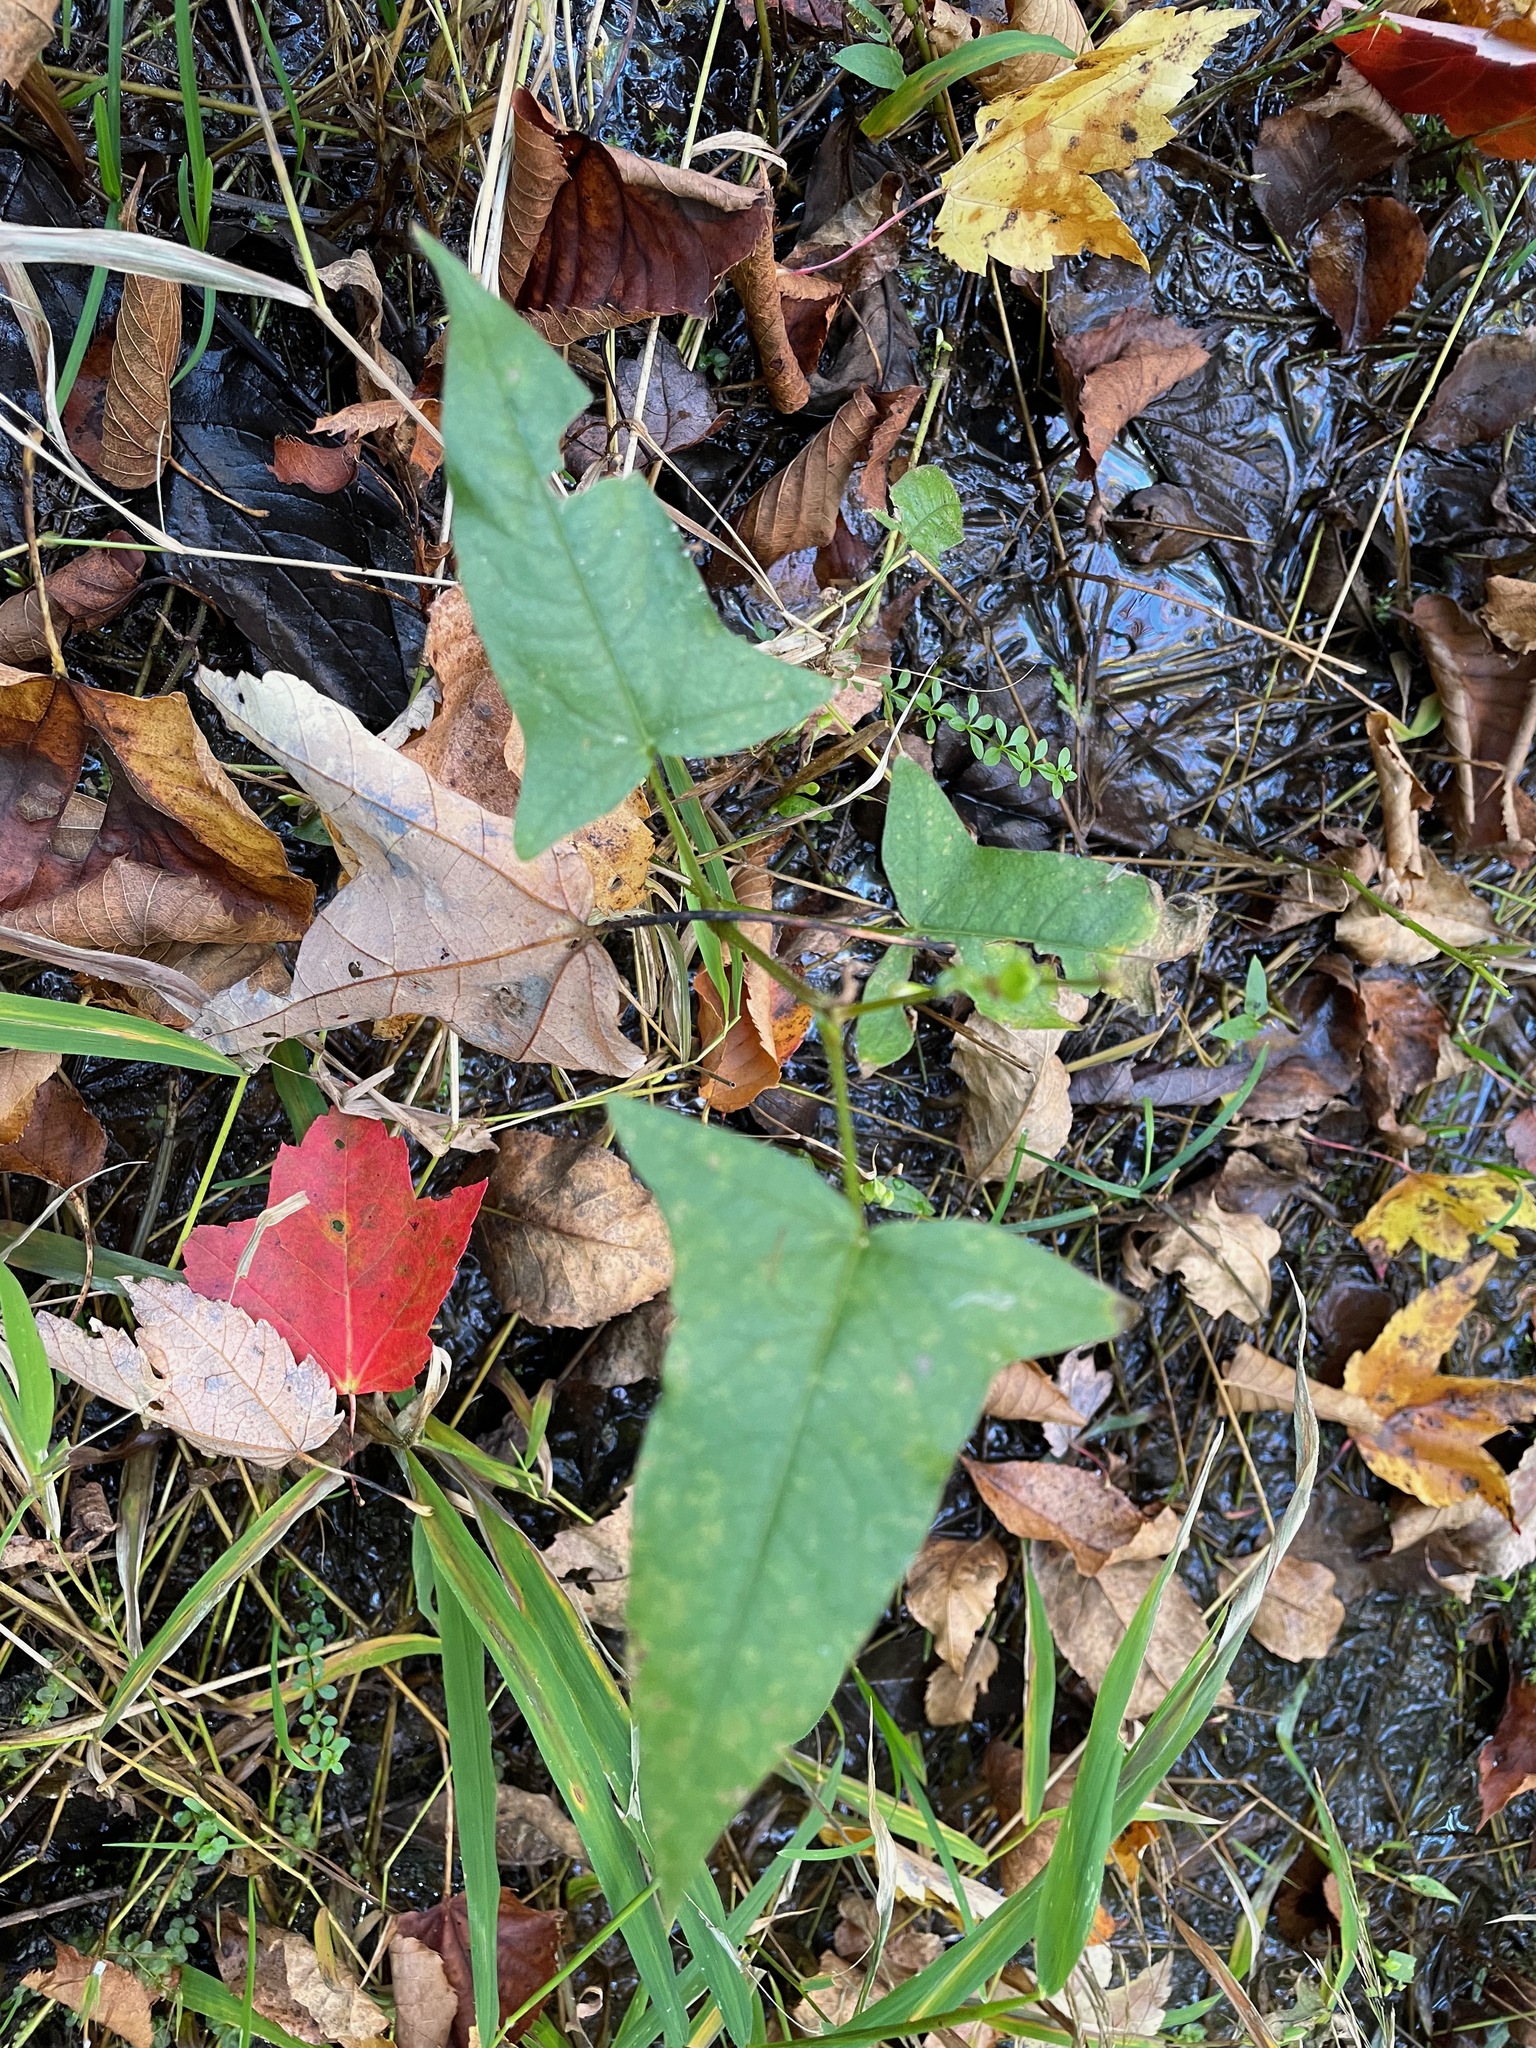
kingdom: Plantae
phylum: Tracheophyta
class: Magnoliopsida
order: Caryophyllales
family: Polygonaceae
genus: Persicaria
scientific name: Persicaria arifolia
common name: Halberd-leaved tear-thumb
